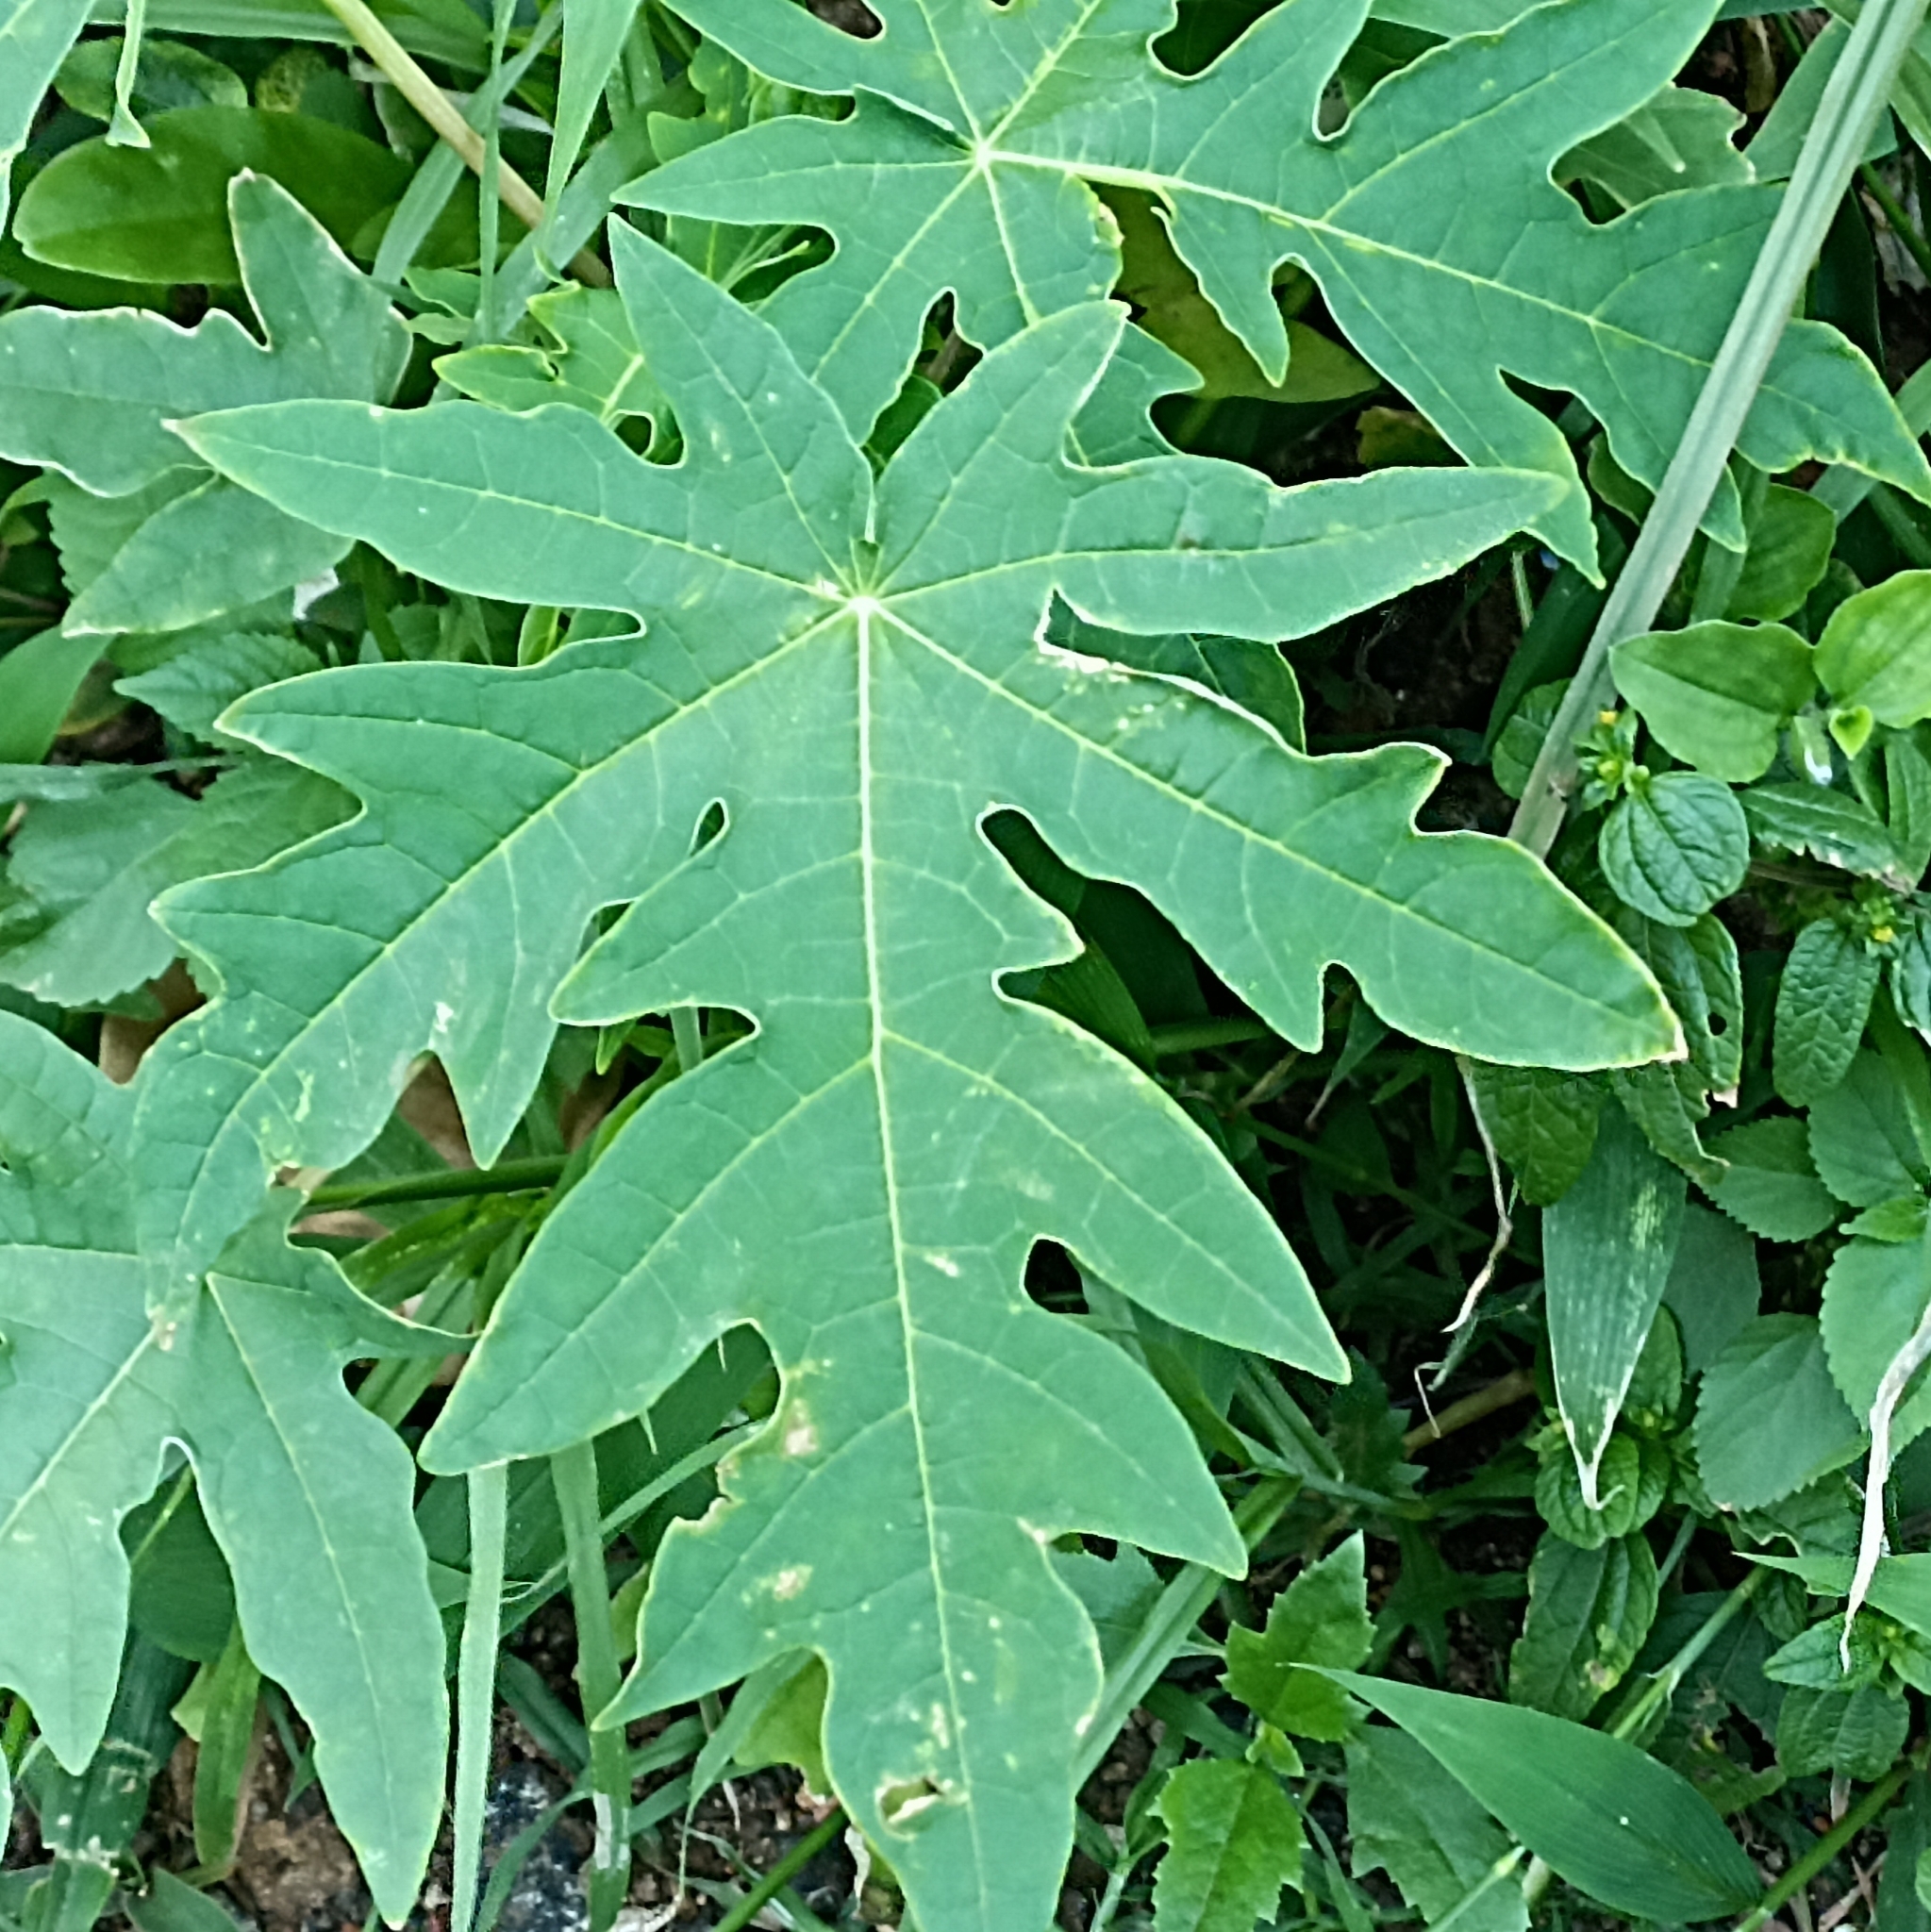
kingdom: Plantae
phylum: Tracheophyta
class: Magnoliopsida
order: Brassicales
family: Caricaceae
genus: Carica
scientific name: Carica papaya
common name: Papaya
